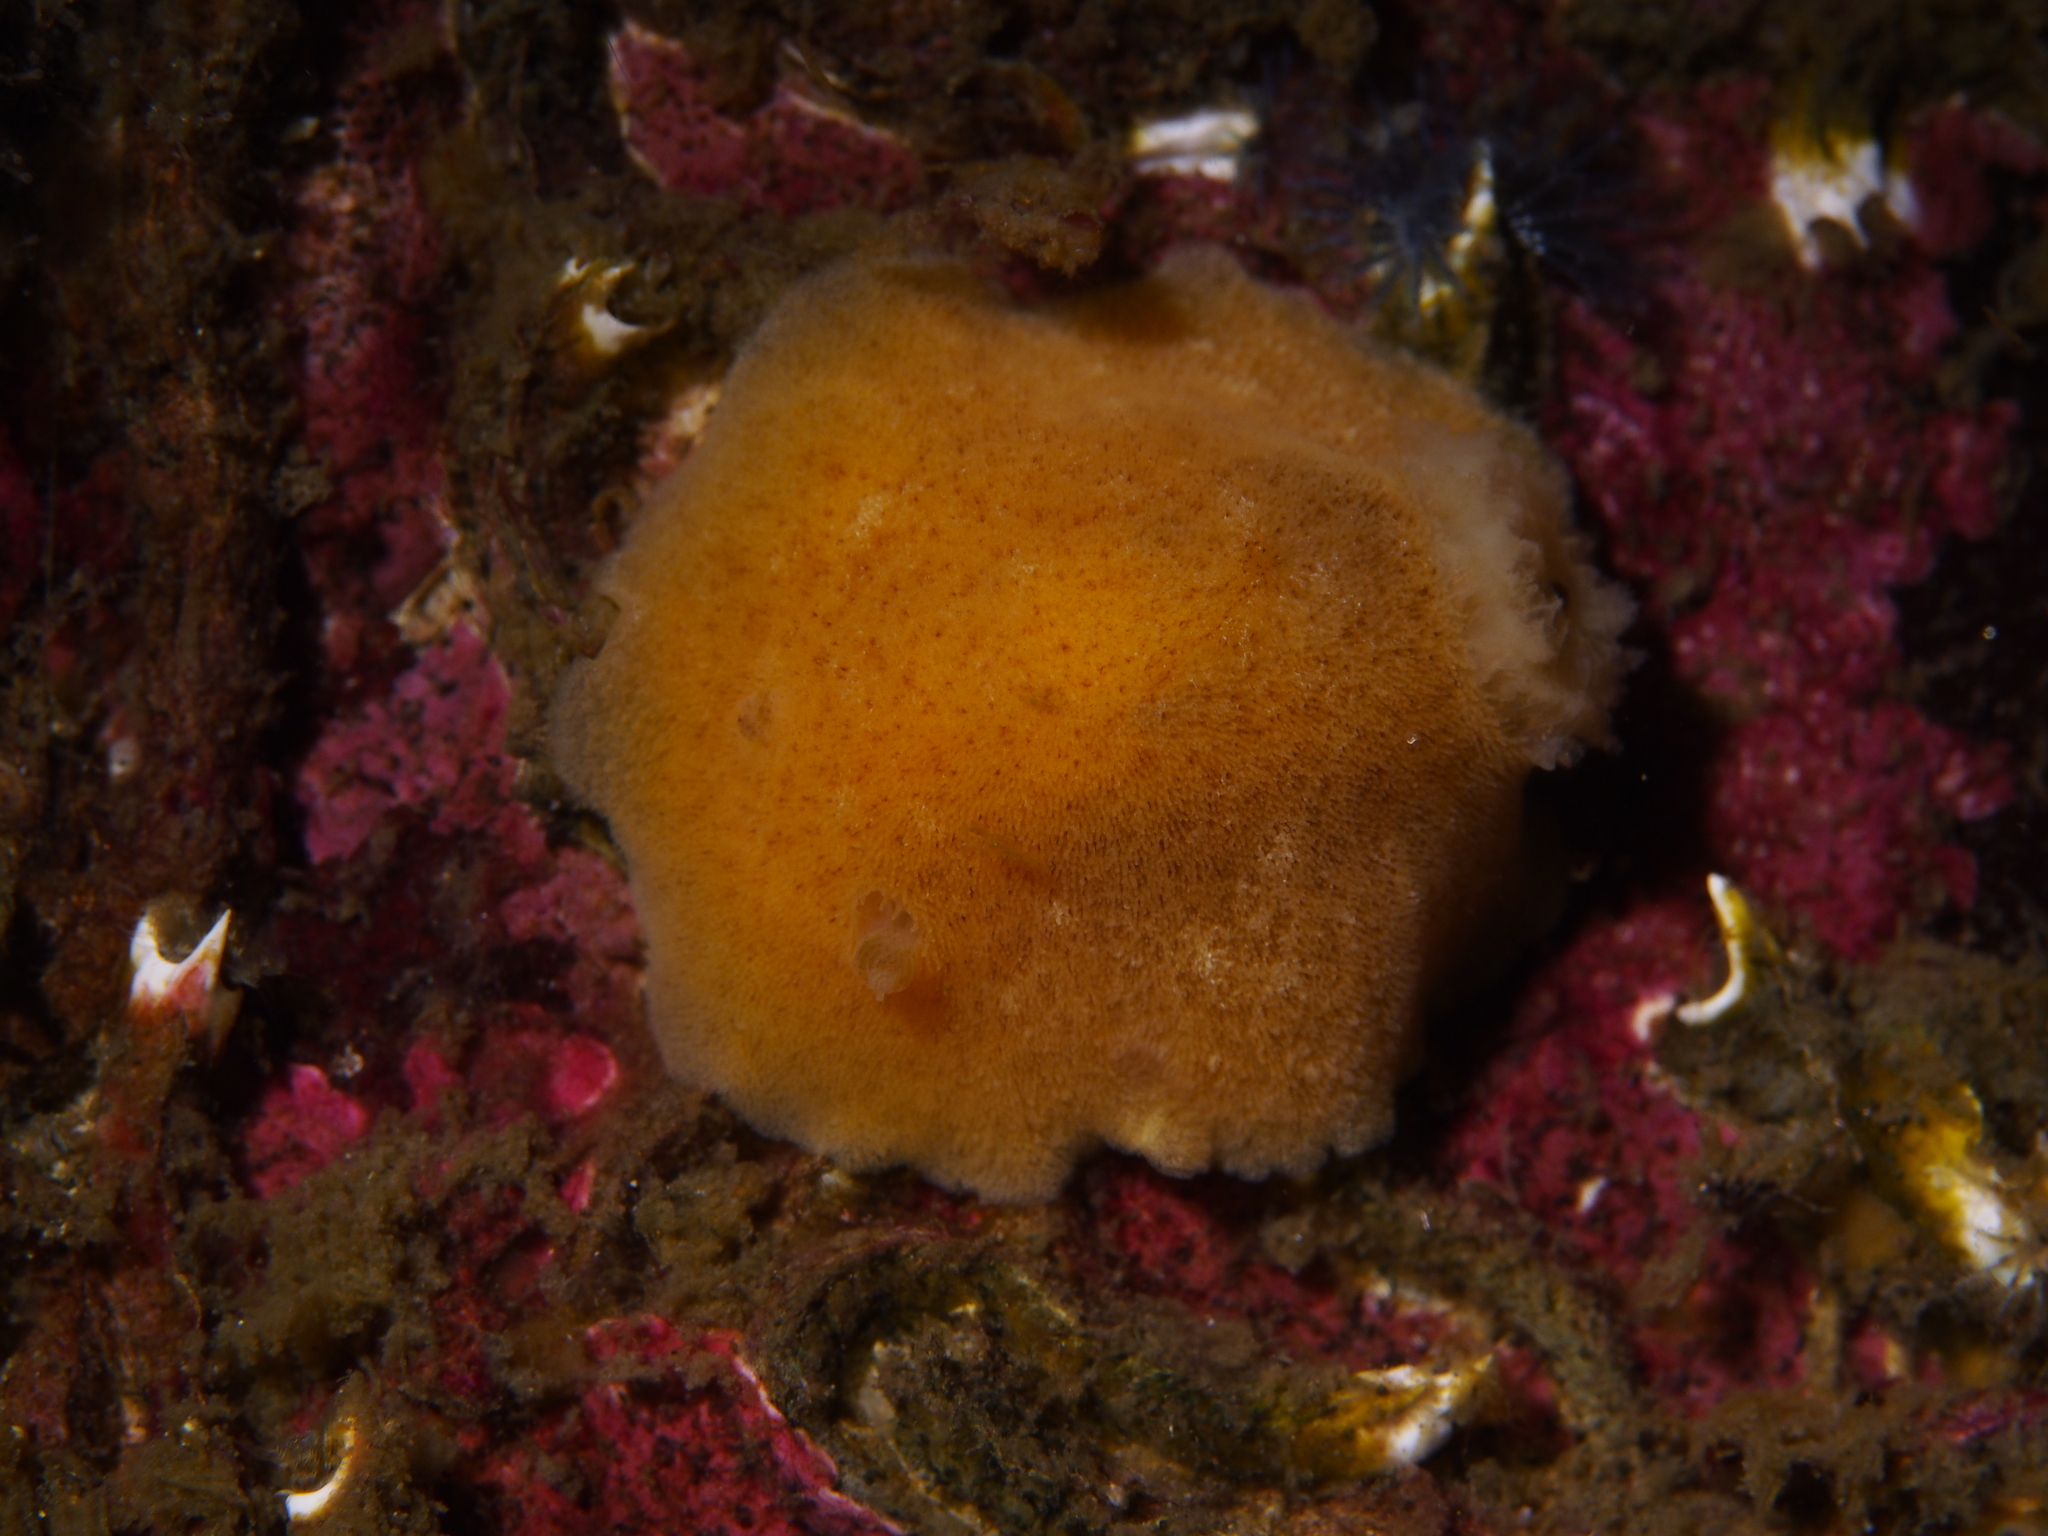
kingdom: Animalia
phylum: Mollusca
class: Gastropoda
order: Nudibranchia
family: Discodorididae
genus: Jorunna
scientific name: Jorunna tomentosa
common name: Grey sea slug
